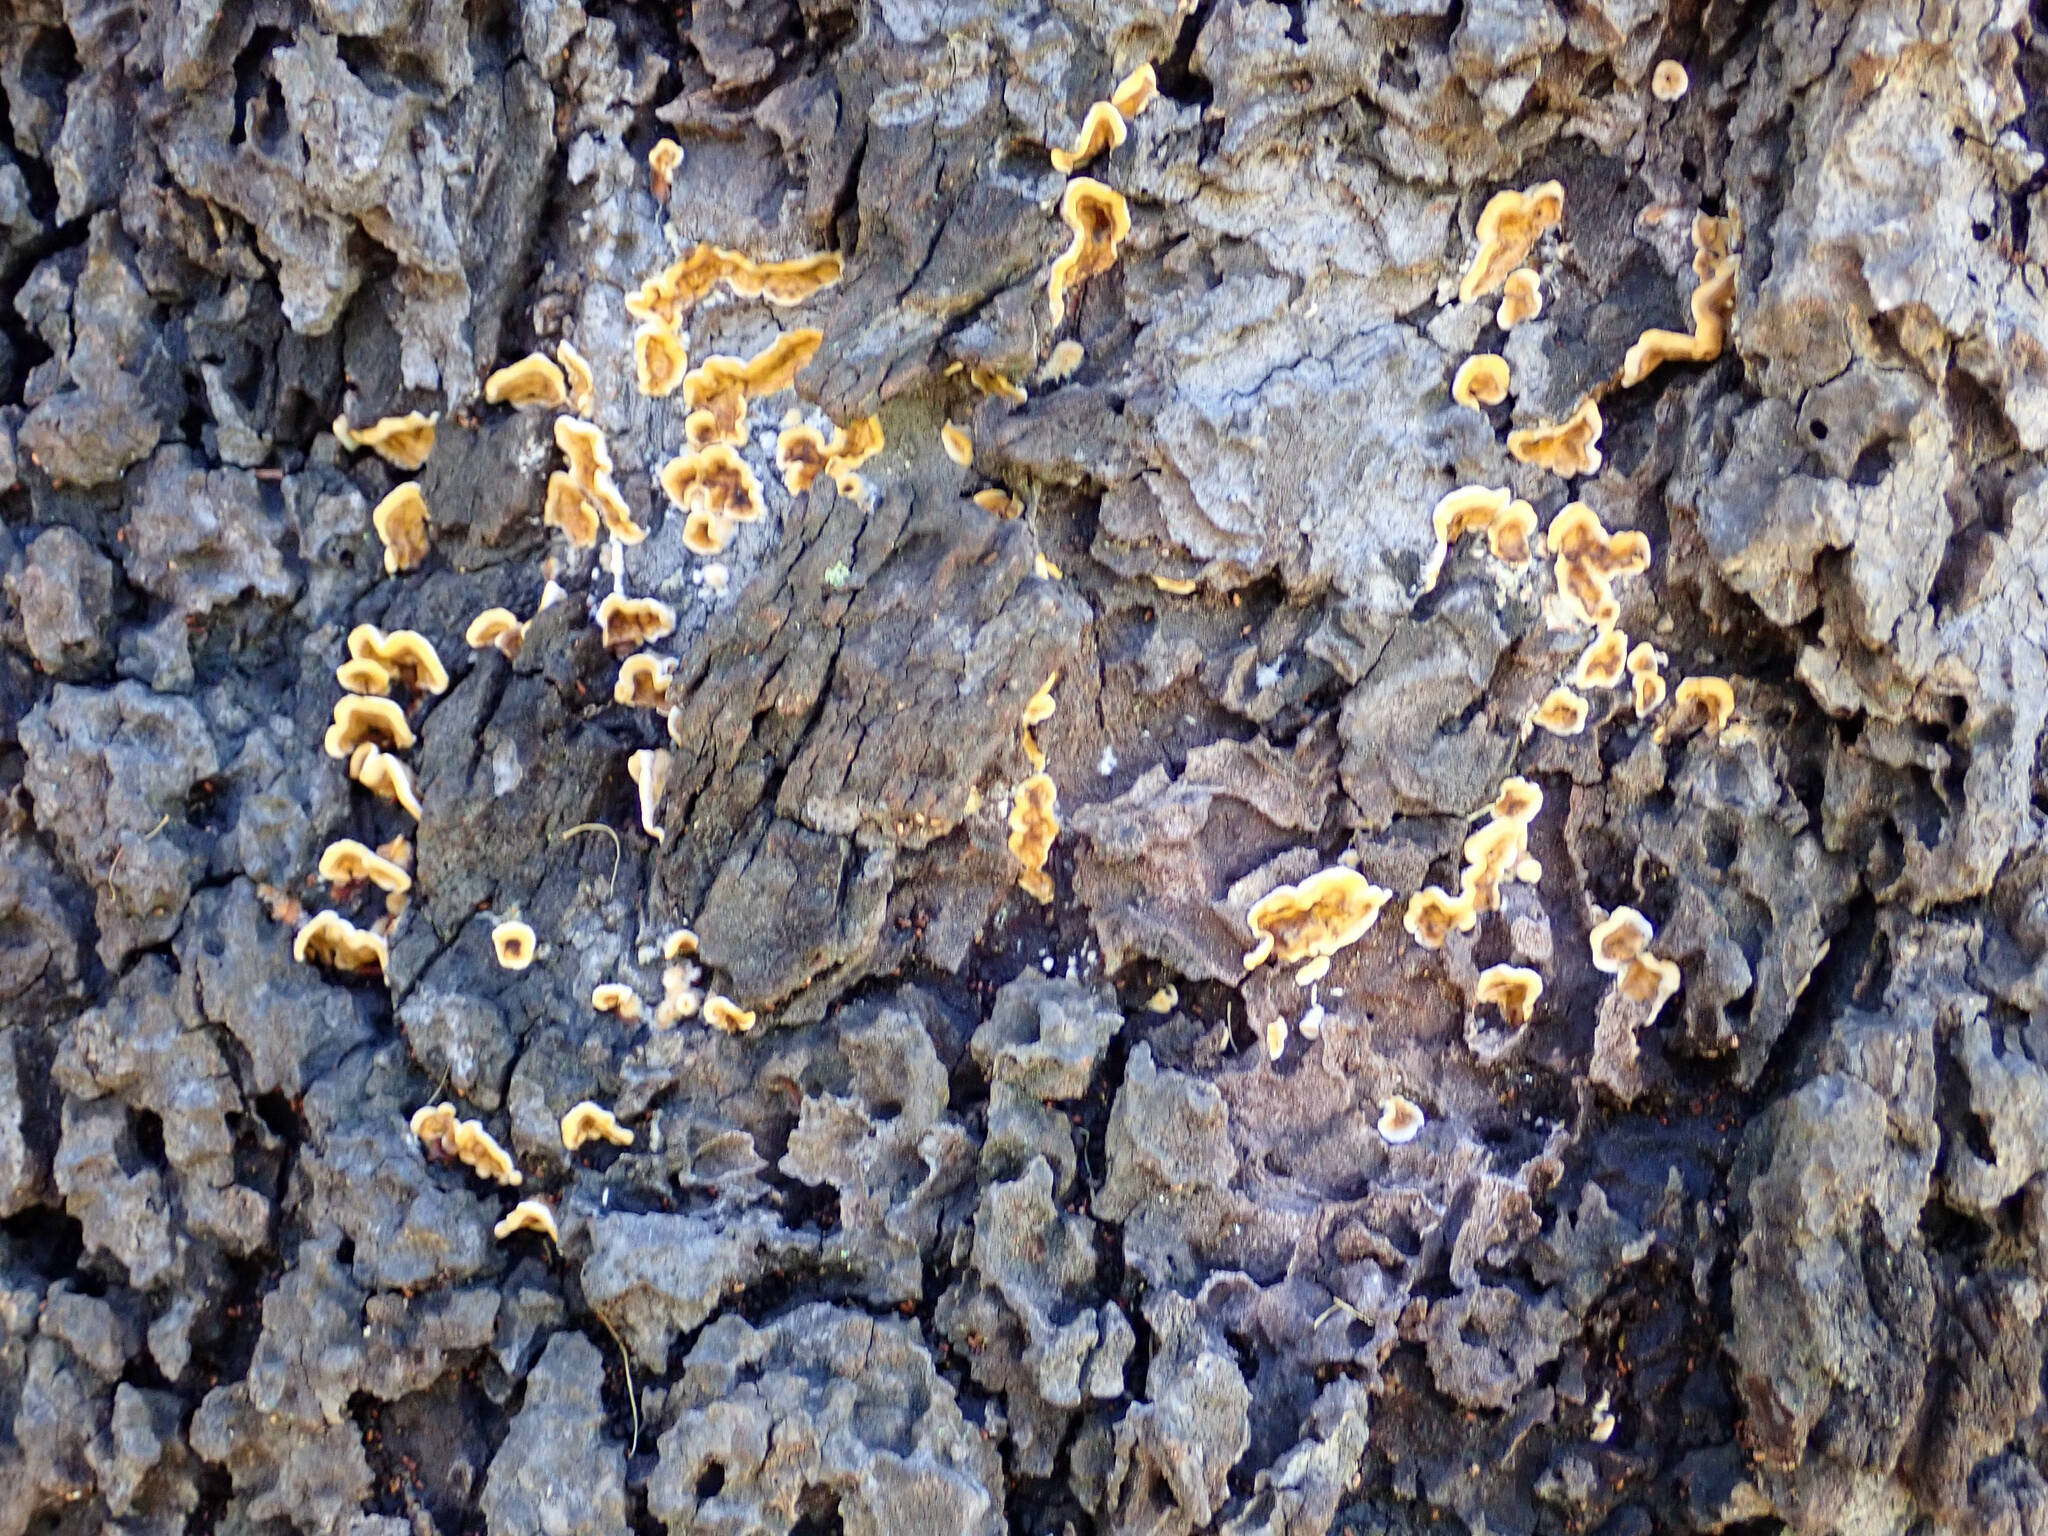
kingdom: Fungi
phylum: Basidiomycota
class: Agaricomycetes
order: Russulales
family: Stereaceae
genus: Stereum
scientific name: Stereum hirsutum
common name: Hairy curtain crust
